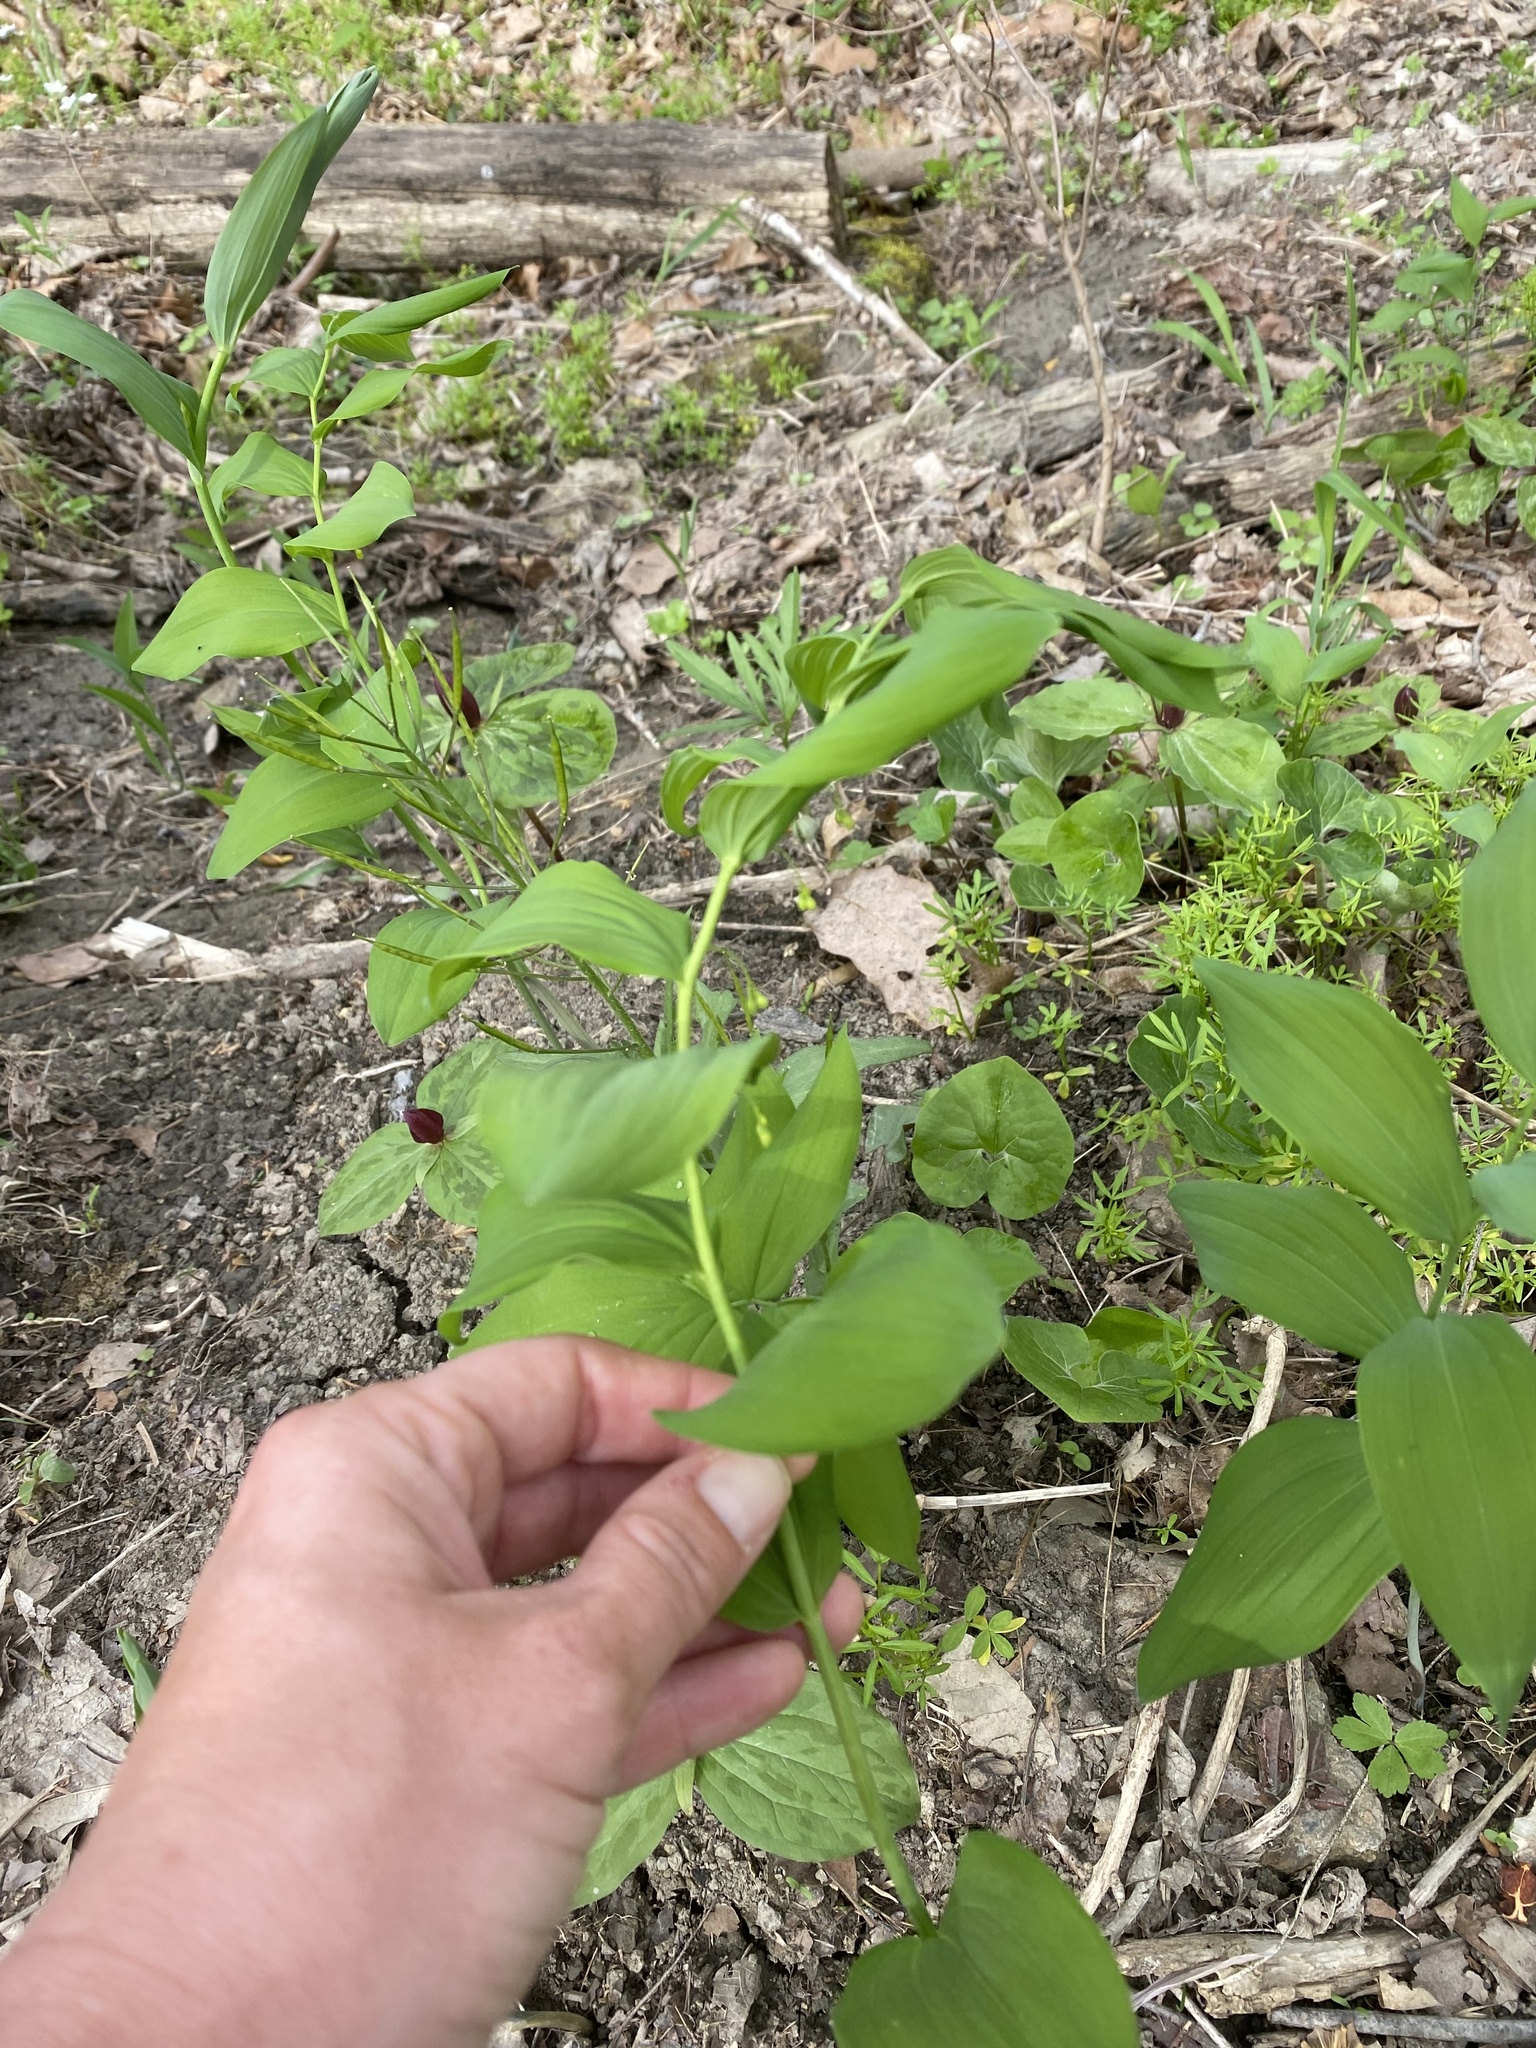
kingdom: Plantae
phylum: Tracheophyta
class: Liliopsida
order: Asparagales
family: Asparagaceae
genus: Polygonatum
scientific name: Polygonatum biflorum
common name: American solomon's-seal
